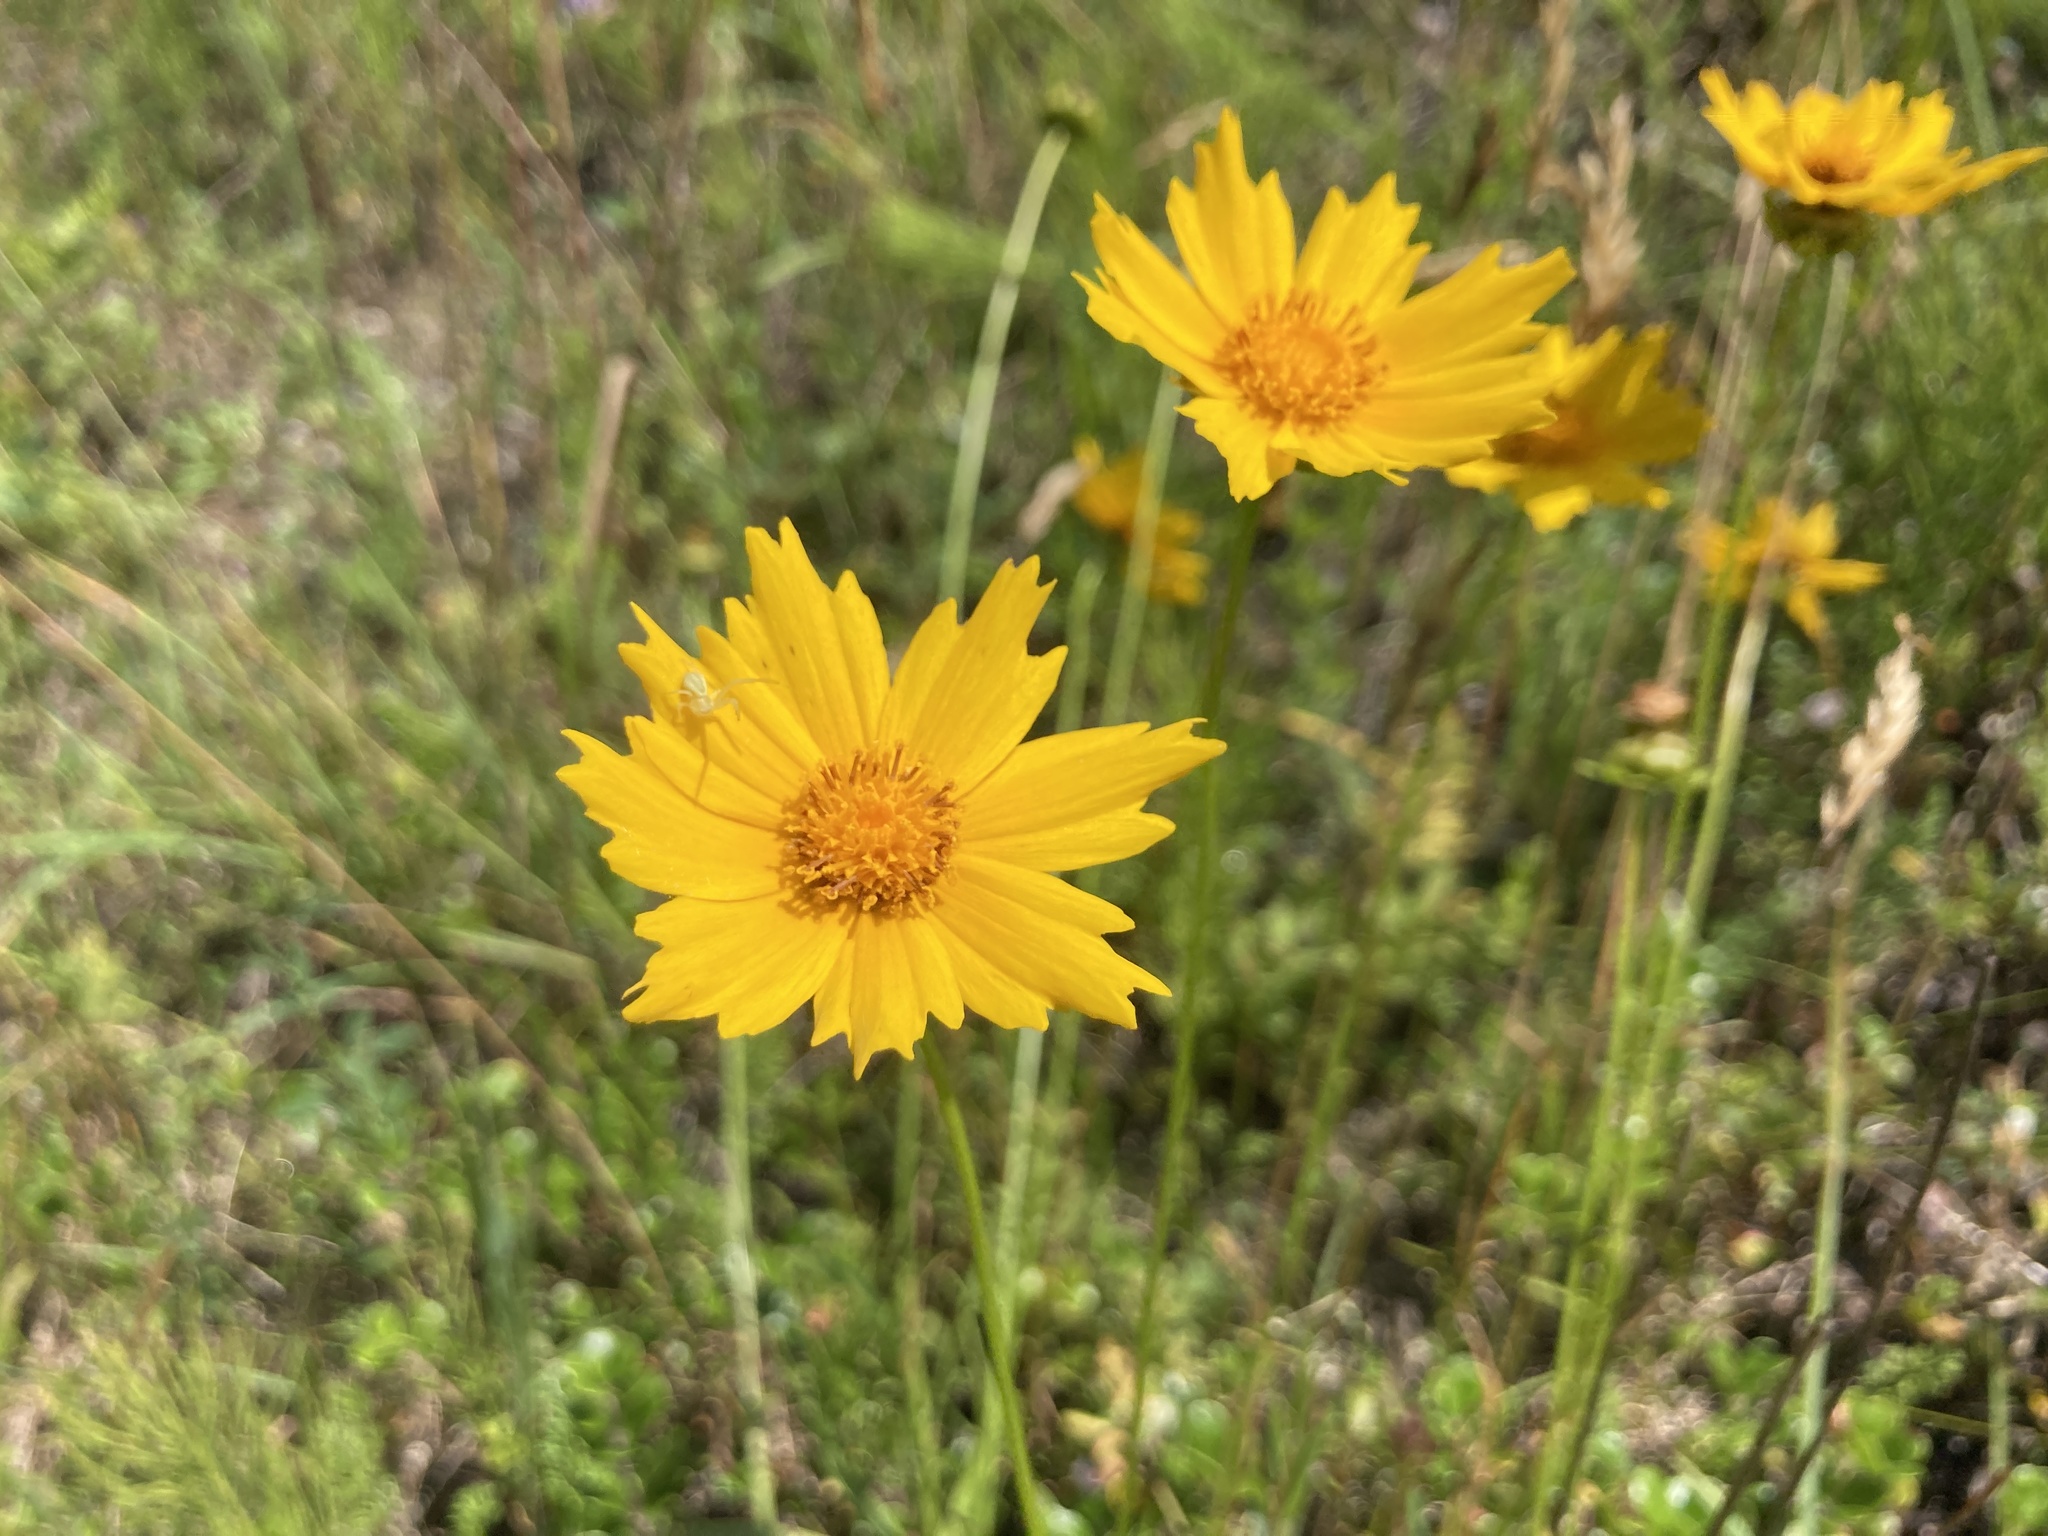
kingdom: Plantae
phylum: Tracheophyta
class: Magnoliopsida
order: Asterales
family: Asteraceae
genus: Coreopsis
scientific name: Coreopsis lanceolata
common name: Garden coreopsis
